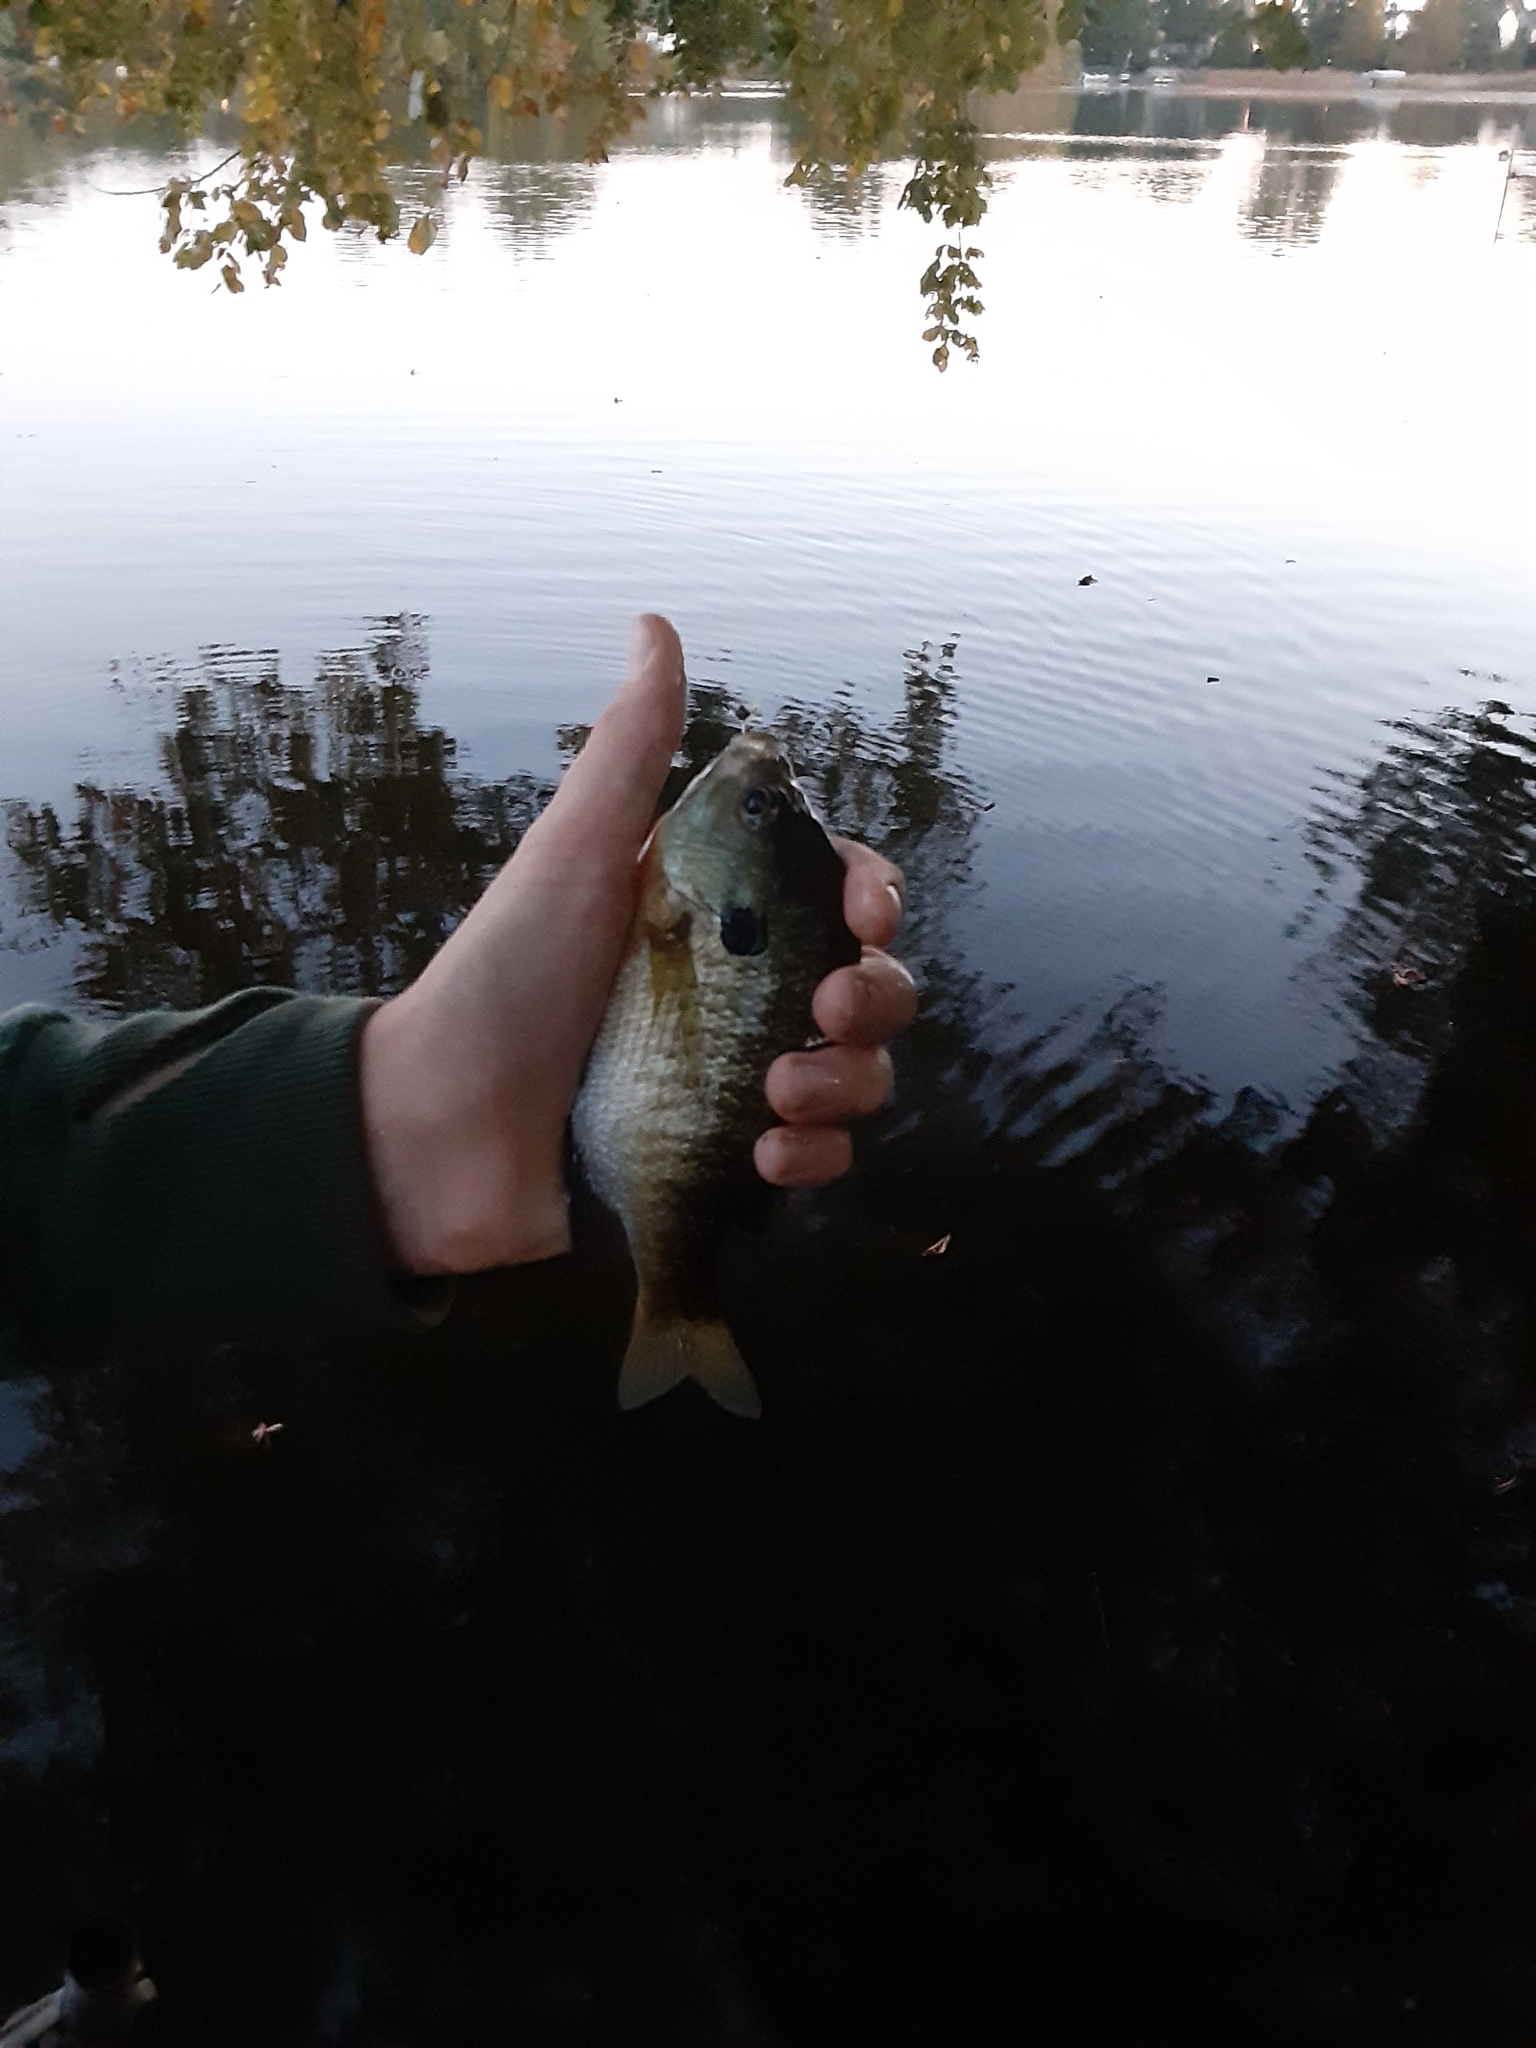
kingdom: Animalia
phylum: Chordata
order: Perciformes
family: Centrarchidae
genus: Lepomis
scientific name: Lepomis macrochirus
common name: Bluegill
